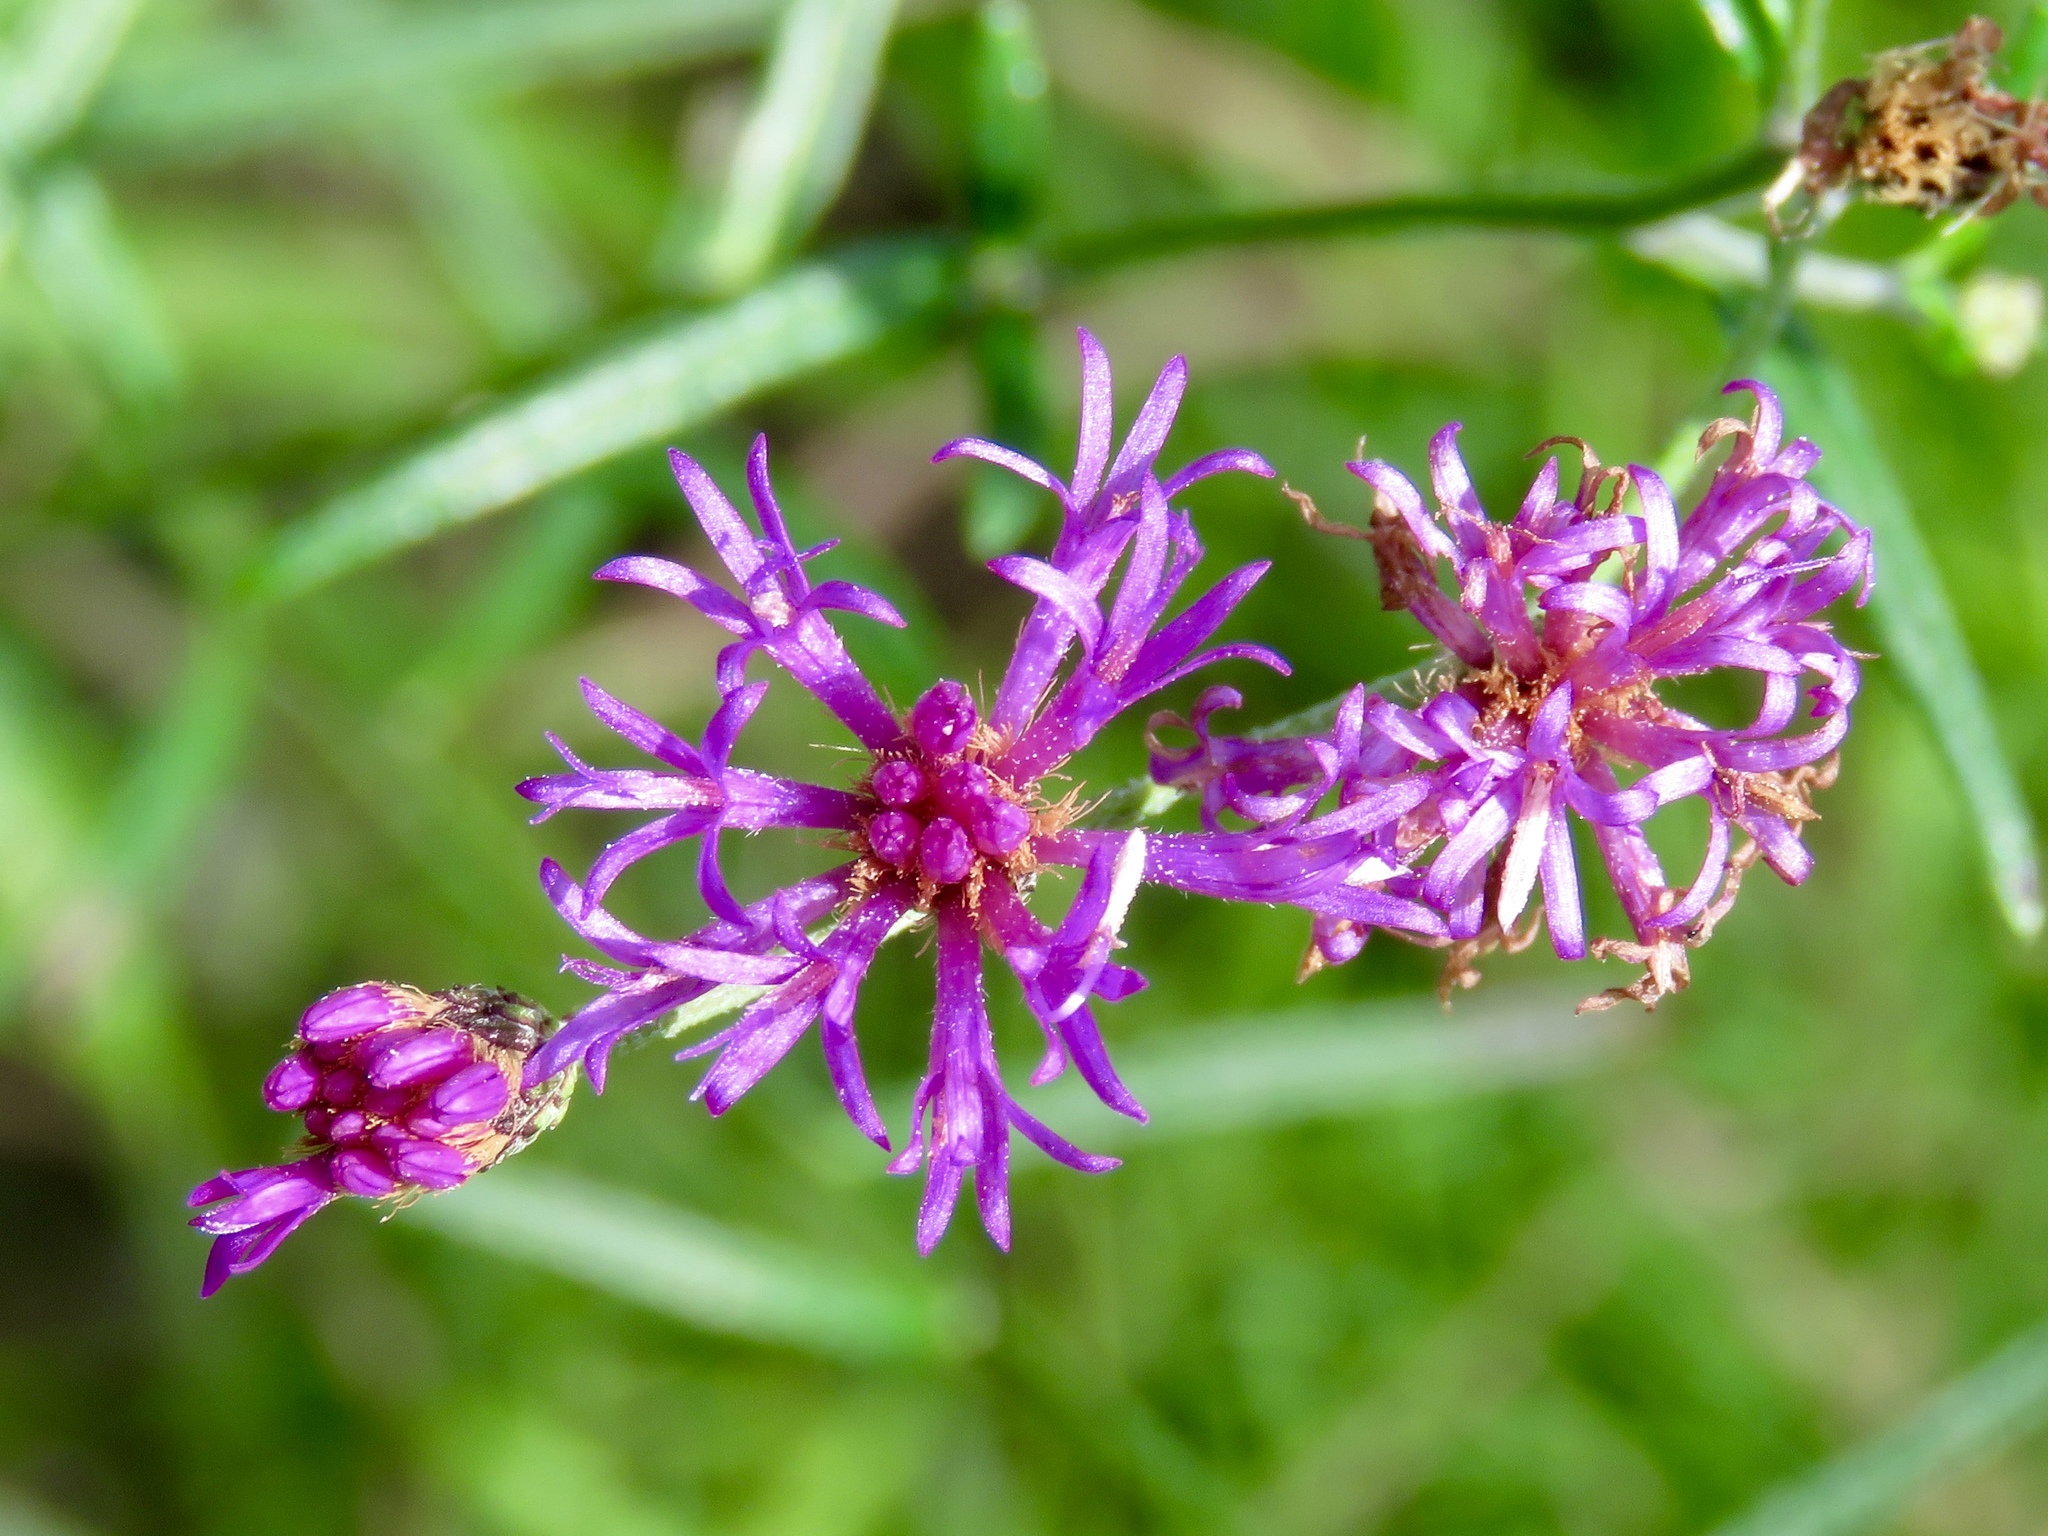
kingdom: Plantae
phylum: Tracheophyta
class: Magnoliopsida
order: Asterales
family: Asteraceae
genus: Vernonia
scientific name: Vernonia texana
